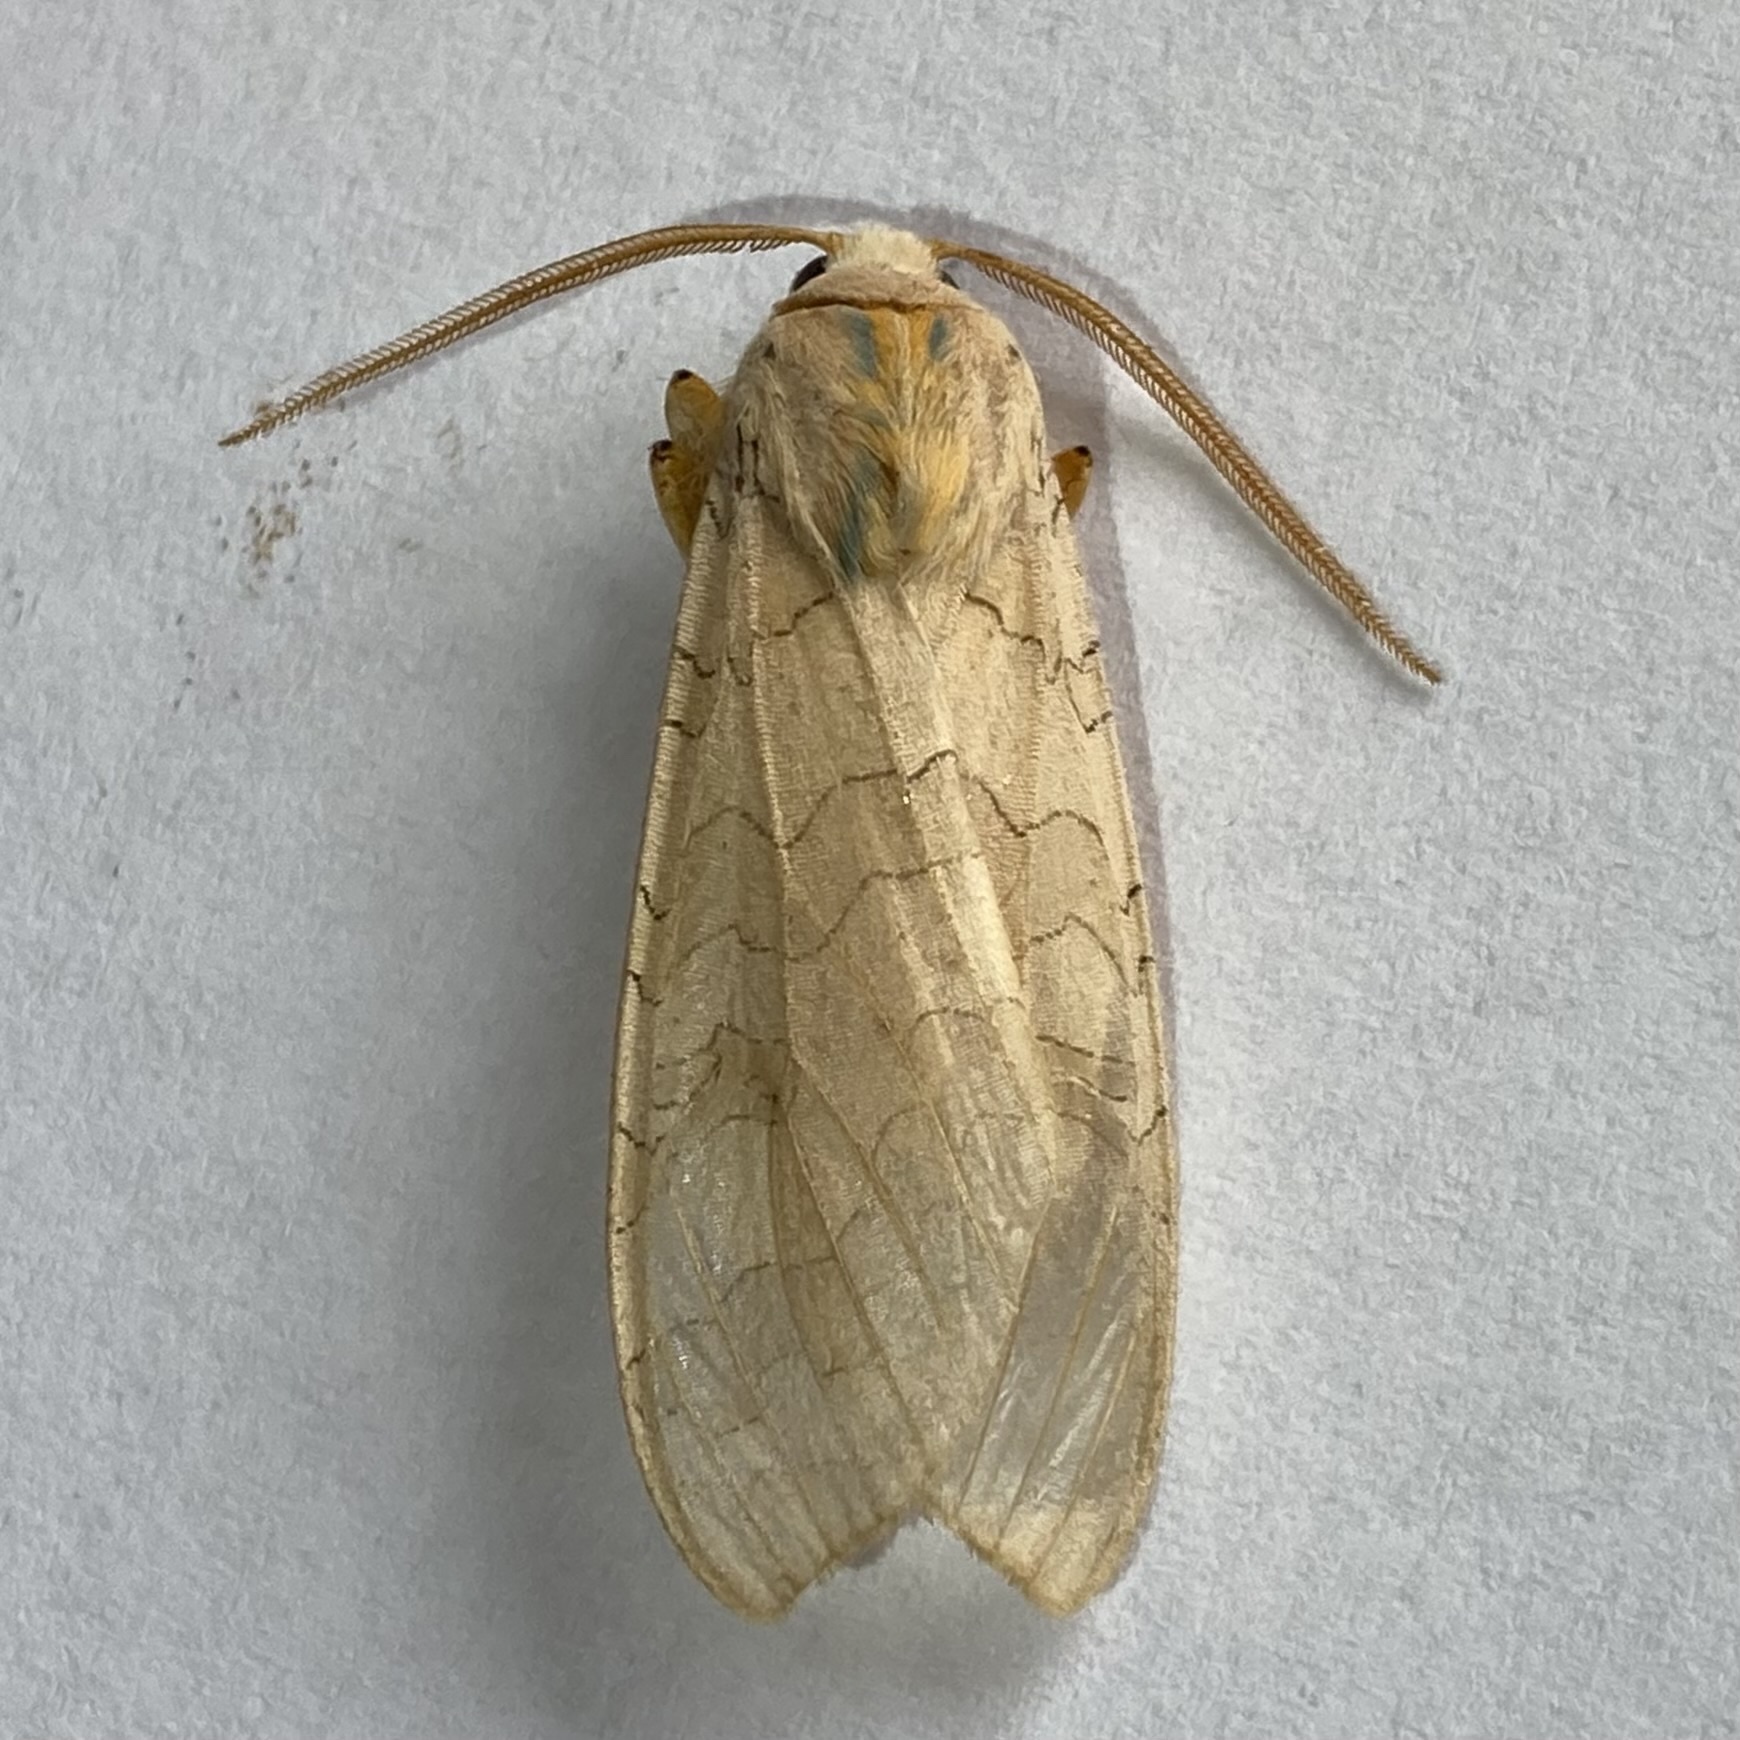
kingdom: Animalia
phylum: Arthropoda
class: Insecta
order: Lepidoptera
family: Erebidae
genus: Halysidota
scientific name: Halysidota tessellaris
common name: Banded tussock moth
